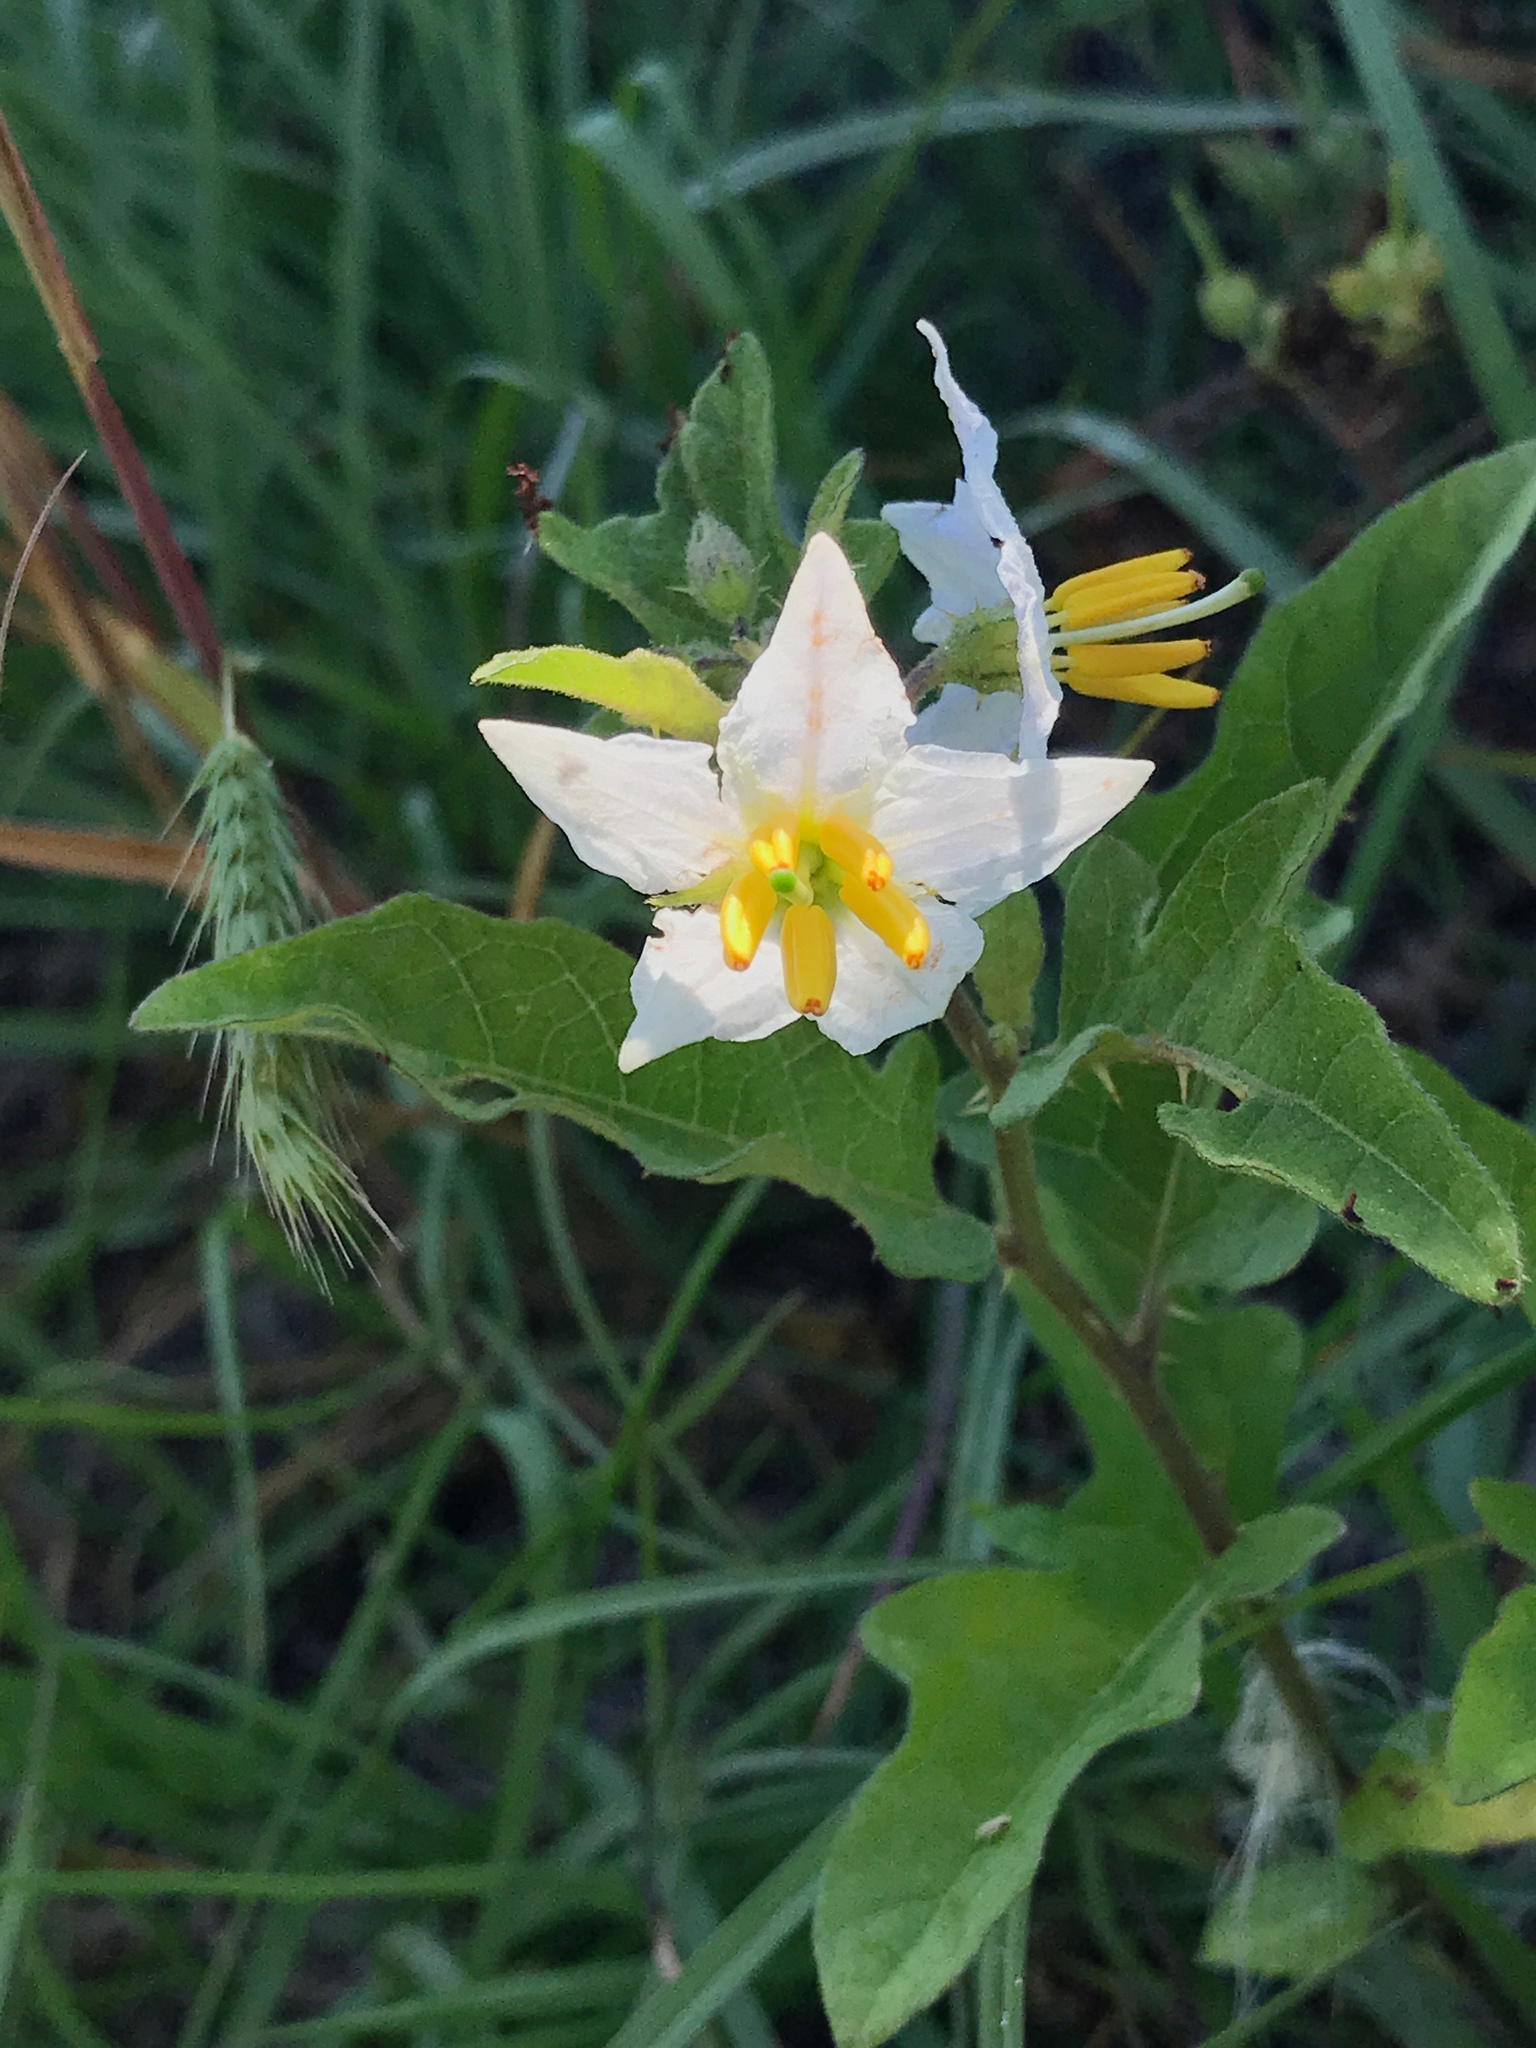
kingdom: Plantae
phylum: Tracheophyta
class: Magnoliopsida
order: Solanales
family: Solanaceae
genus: Solanum
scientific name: Solanum carolinense
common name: Horse-nettle
